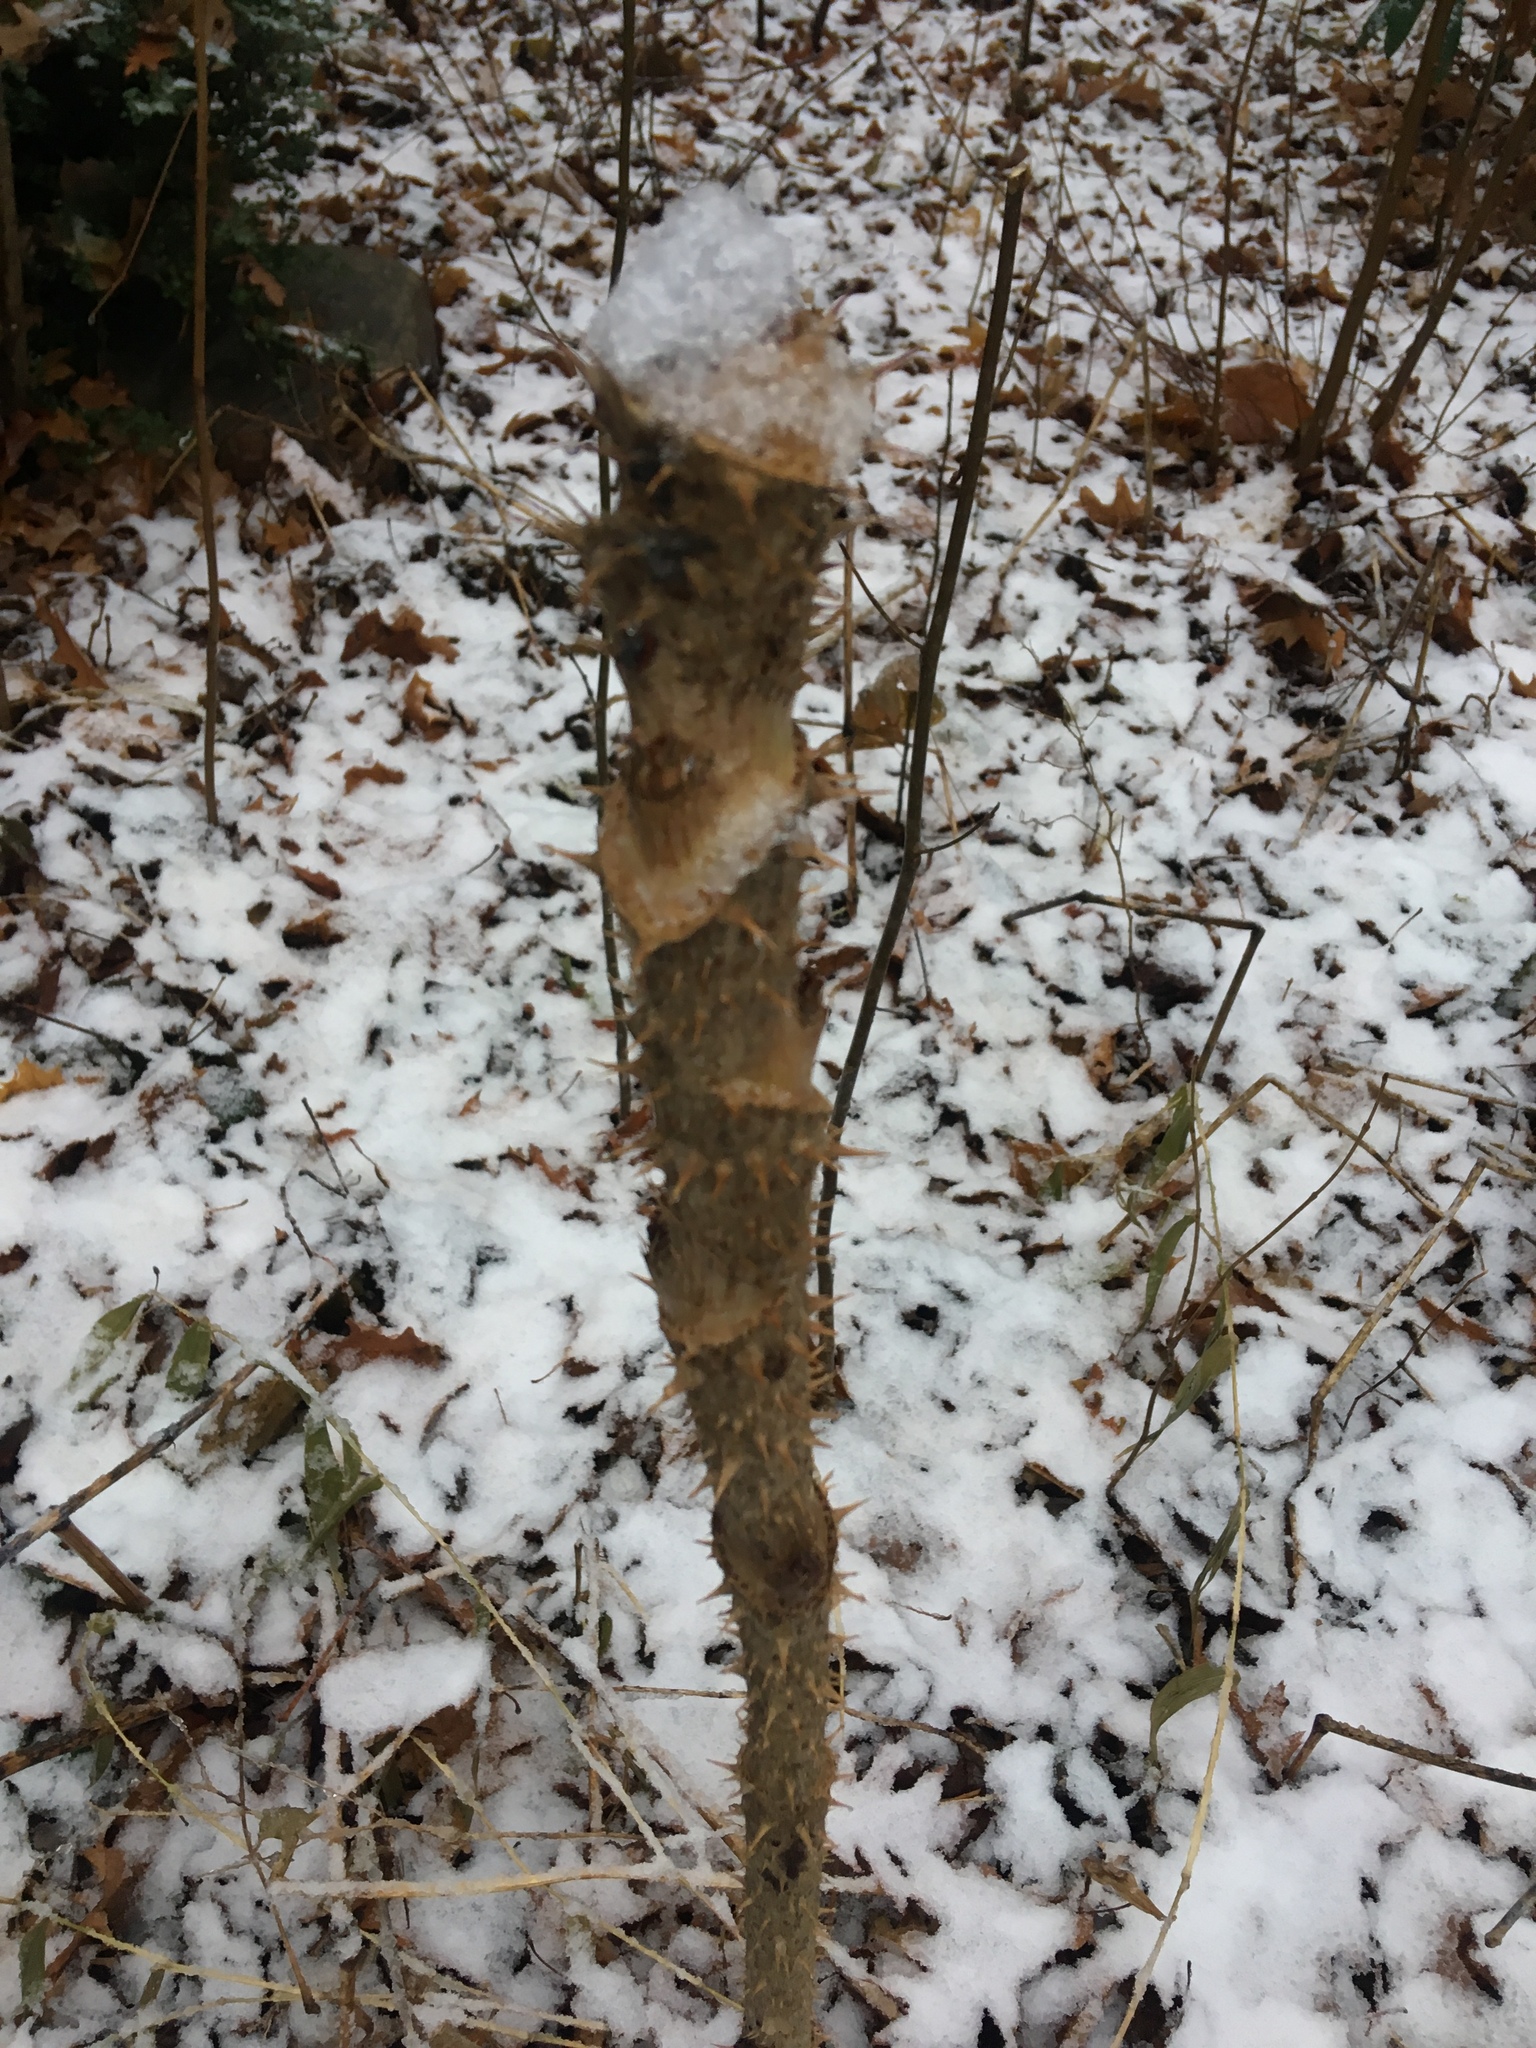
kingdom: Plantae
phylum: Tracheophyta
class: Magnoliopsida
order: Apiales
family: Araliaceae
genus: Aralia
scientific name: Aralia elata
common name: Japanese angelica-tree
